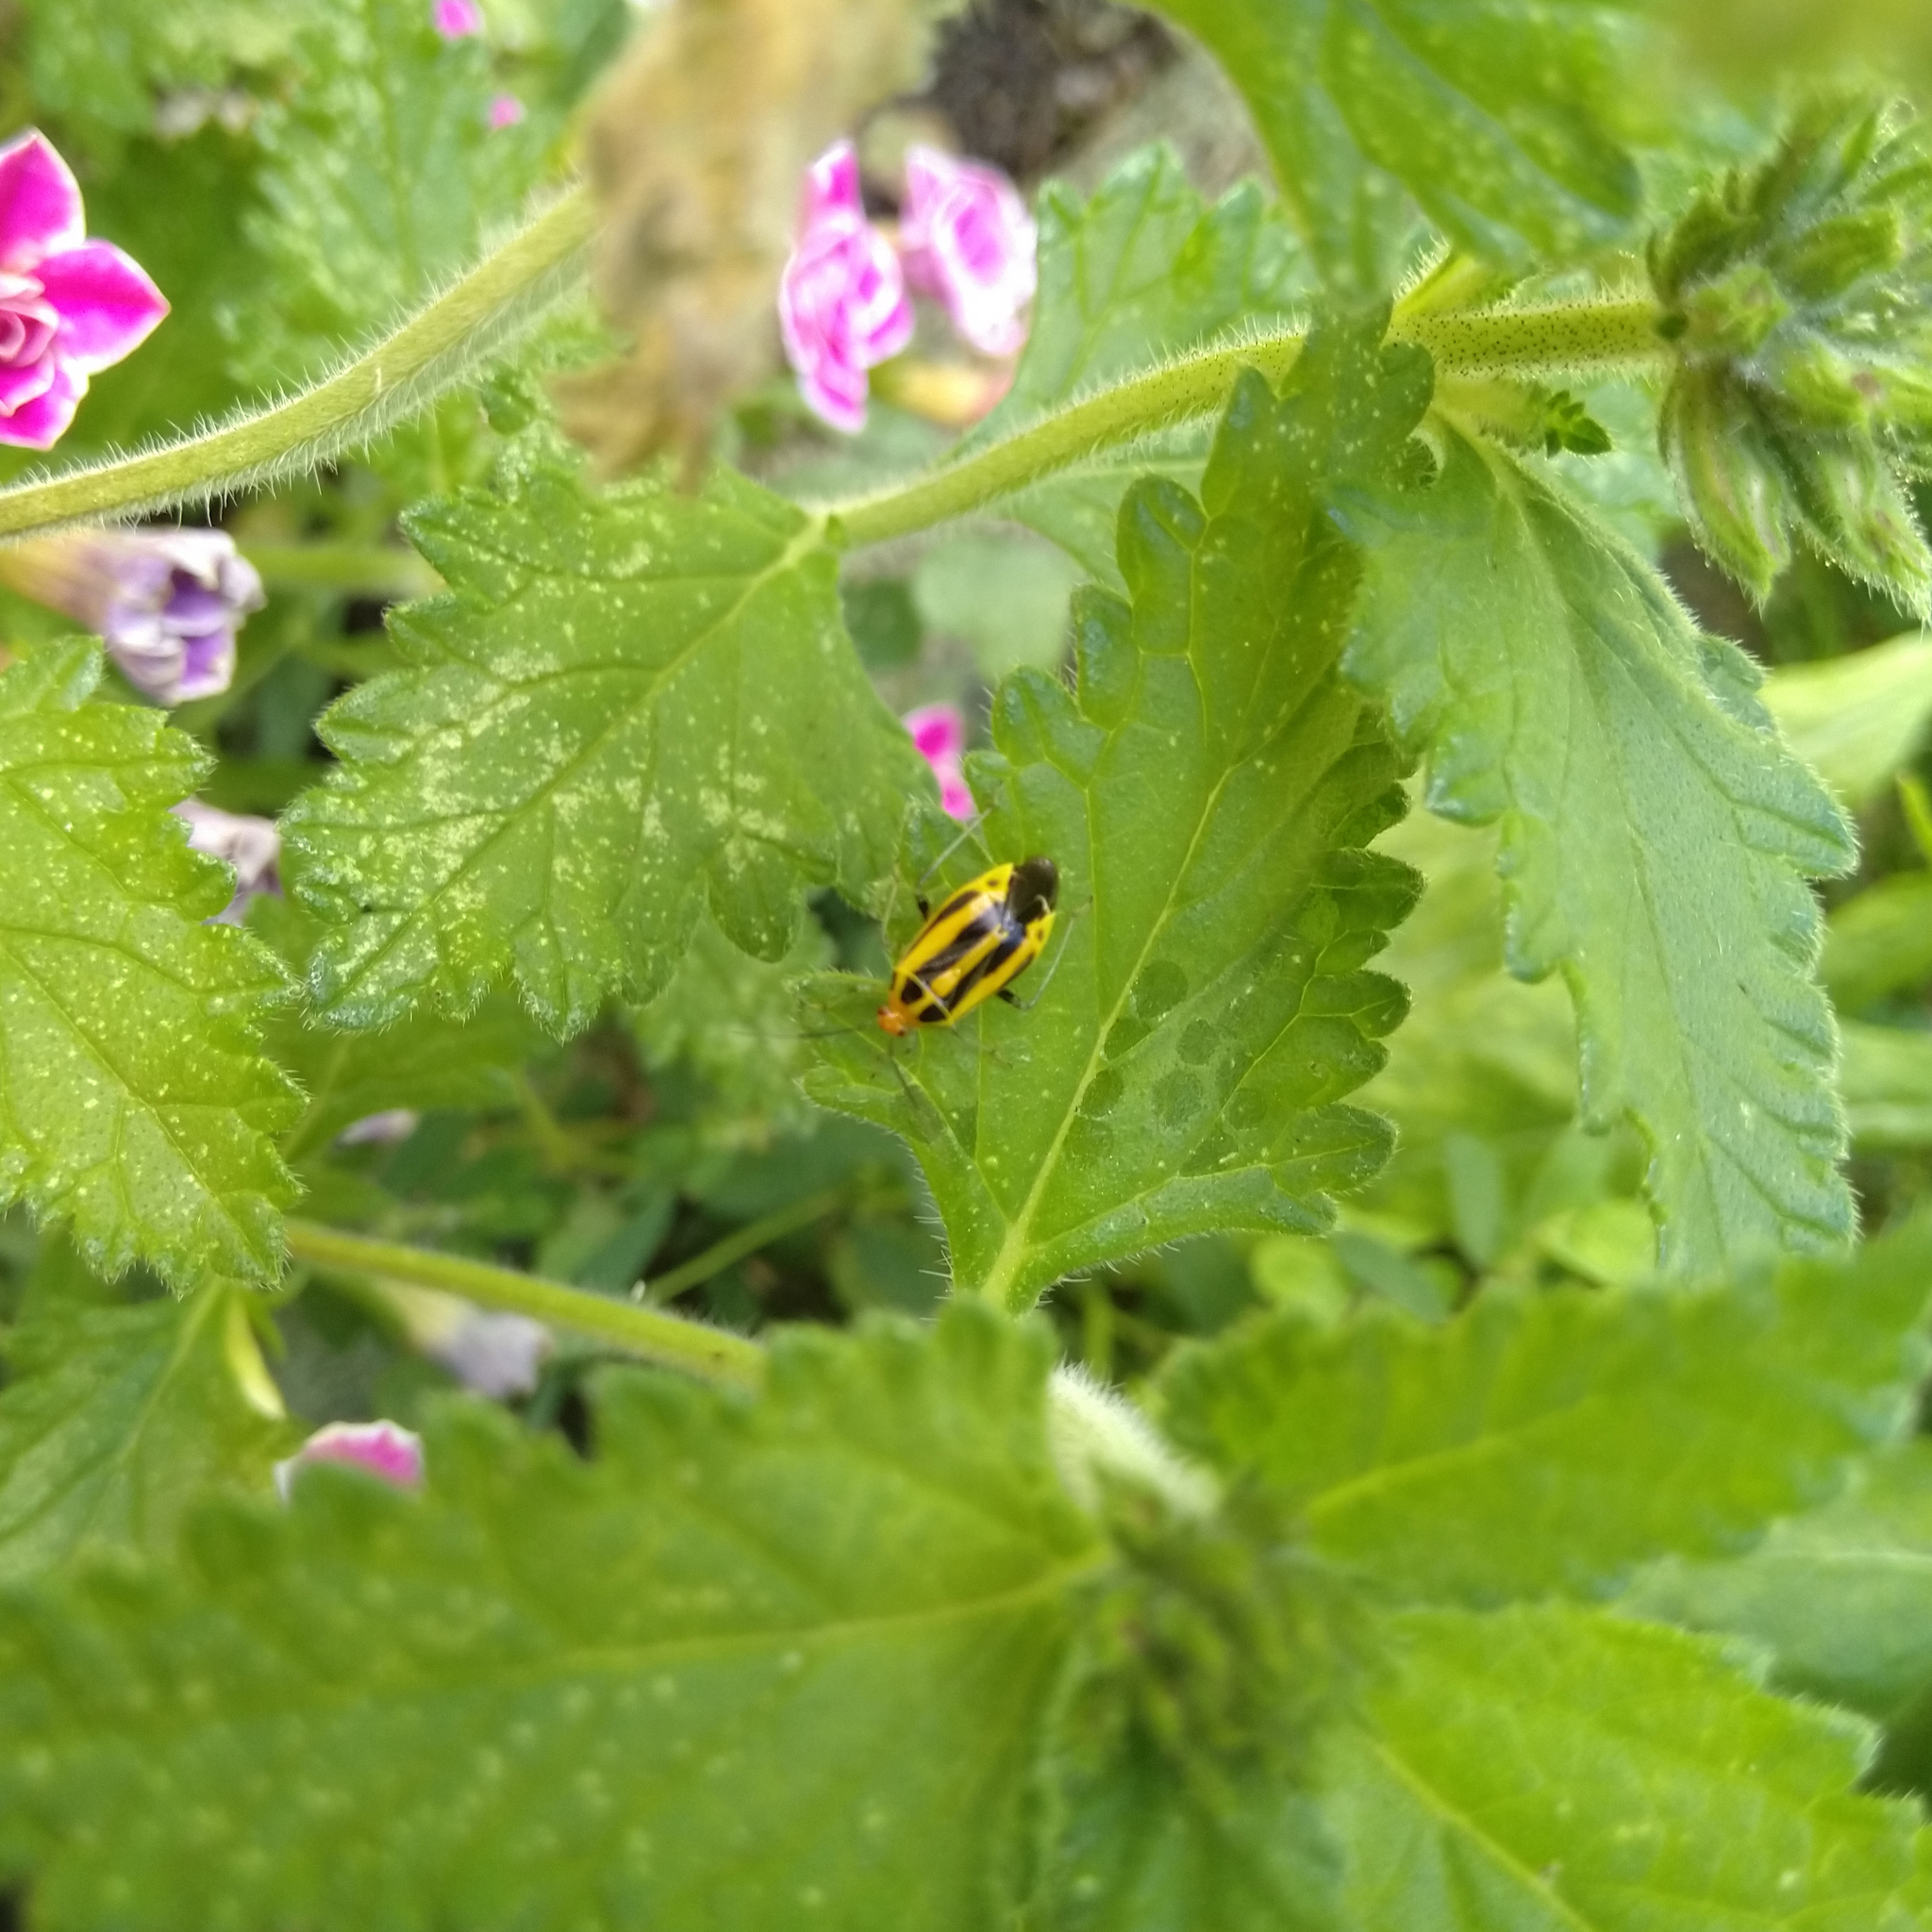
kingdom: Animalia
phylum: Arthropoda
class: Insecta
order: Hemiptera
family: Miridae
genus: Poecilocapsus
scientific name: Poecilocapsus lineatus
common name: Four-lined plant bug
